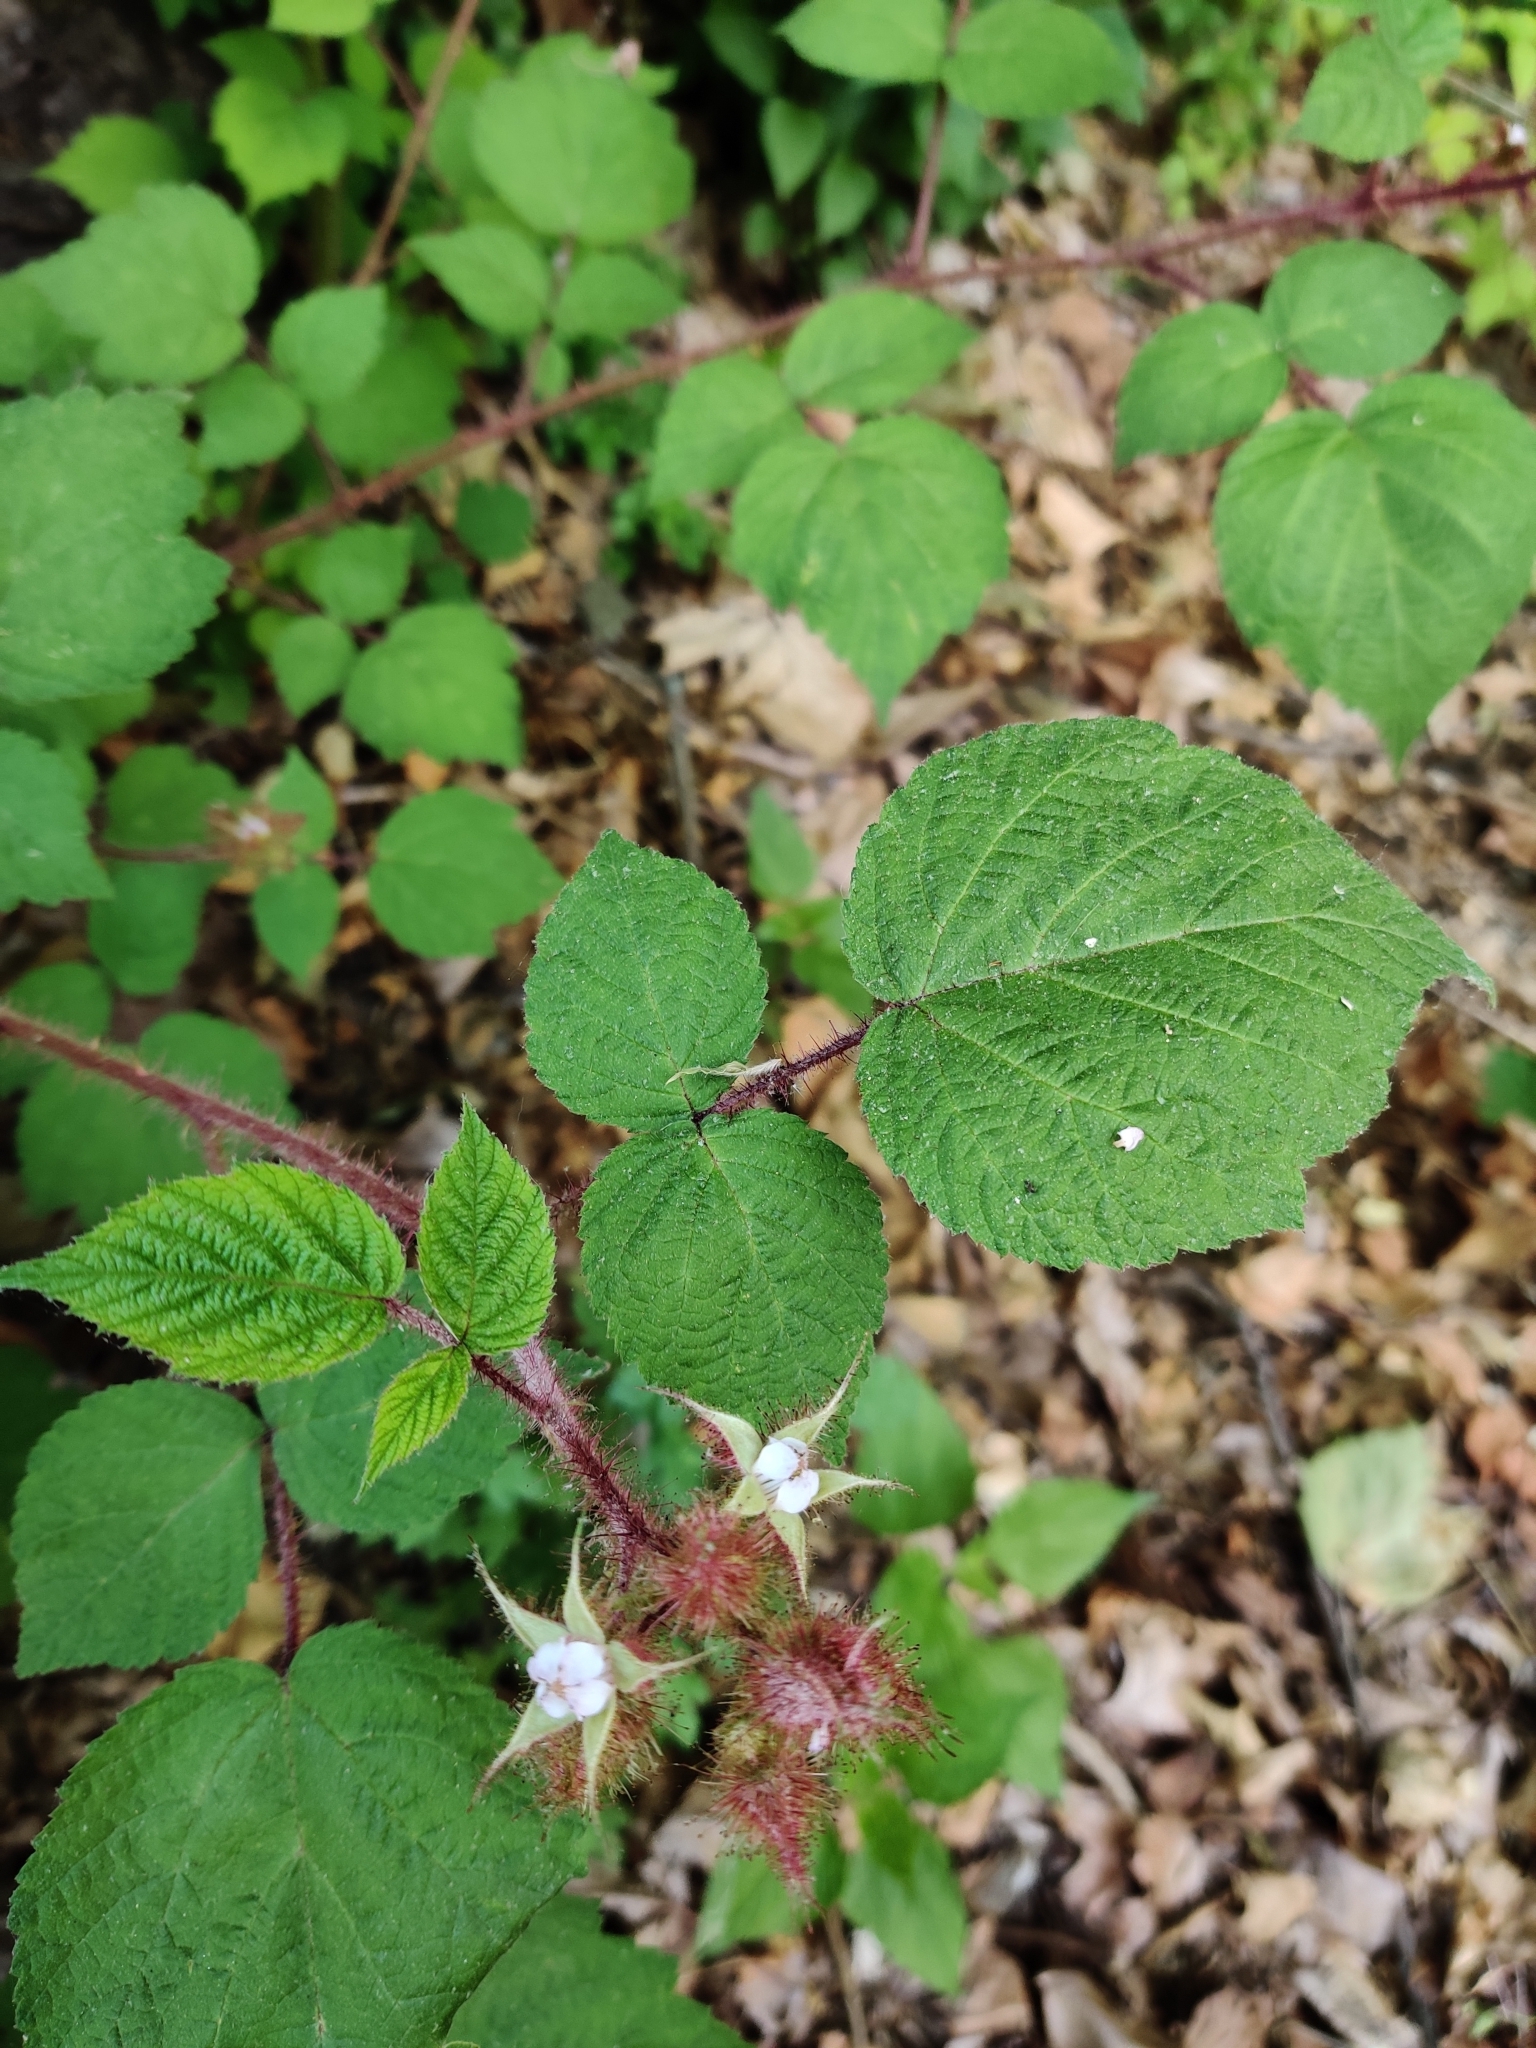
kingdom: Plantae
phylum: Tracheophyta
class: Magnoliopsida
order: Rosales
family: Rosaceae
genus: Rubus
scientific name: Rubus phoenicolasius
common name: Japanese wineberry
